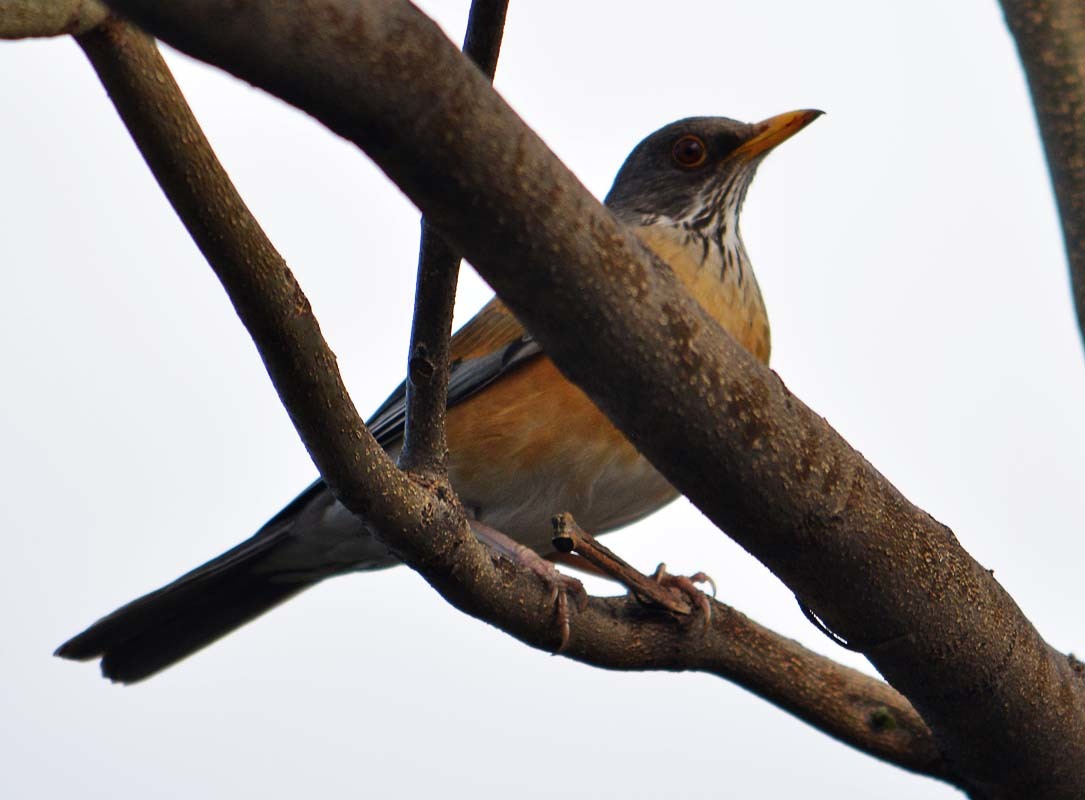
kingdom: Animalia
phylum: Chordata
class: Aves
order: Passeriformes
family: Turdidae
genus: Turdus
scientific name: Turdus rufopalliatus
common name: Rufous-backed robin
